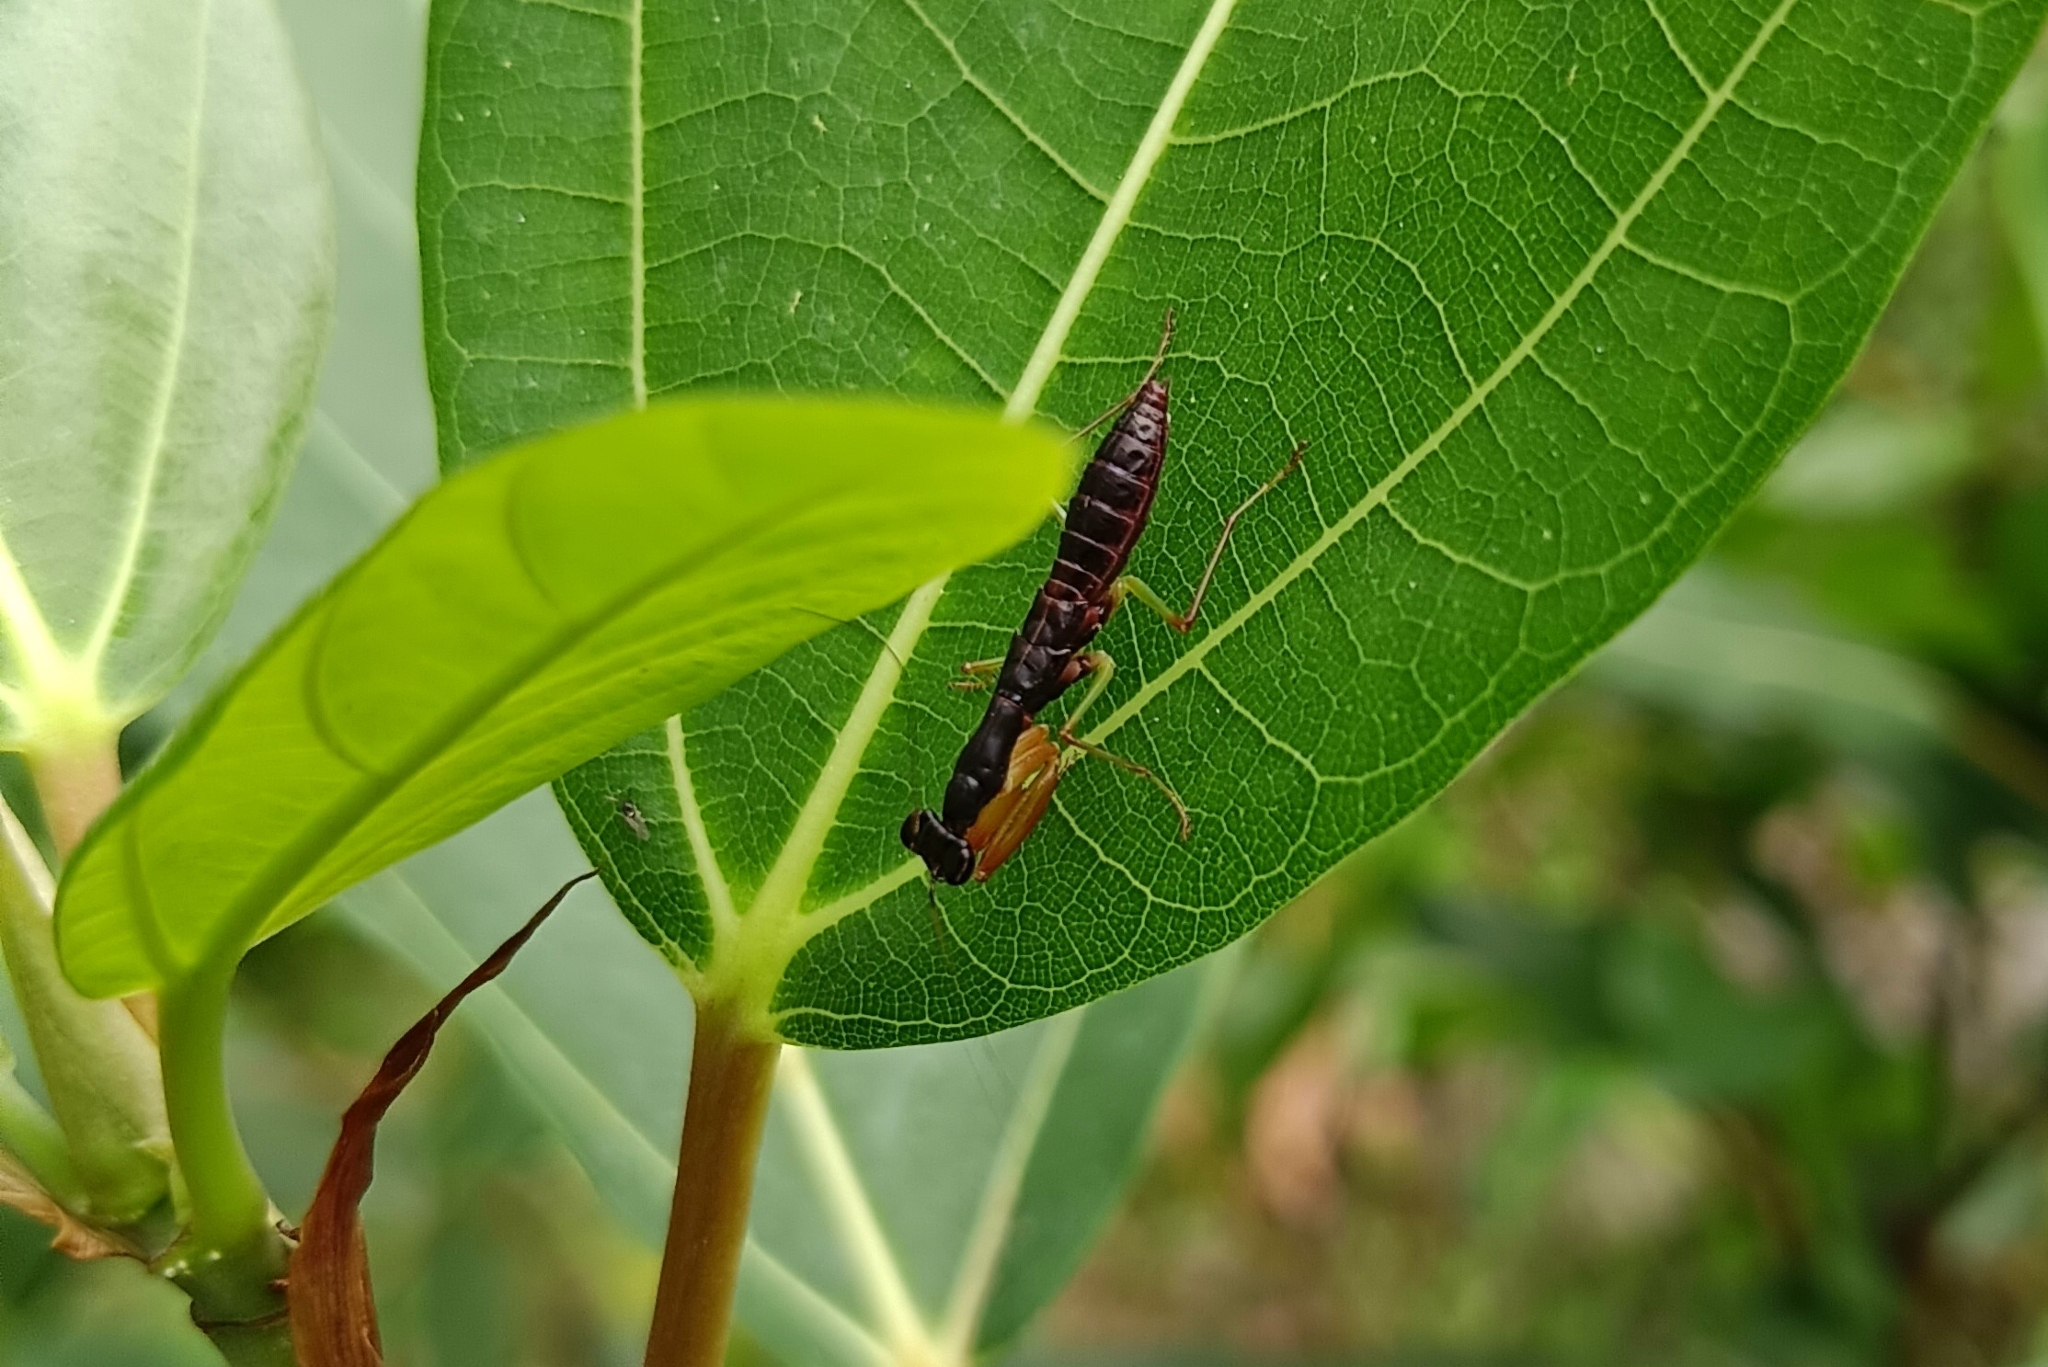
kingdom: Animalia
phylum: Arthropoda
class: Insecta
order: Mantodea
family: Hymenopodidae
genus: Odontomantis
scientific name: Odontomantis planiceps
